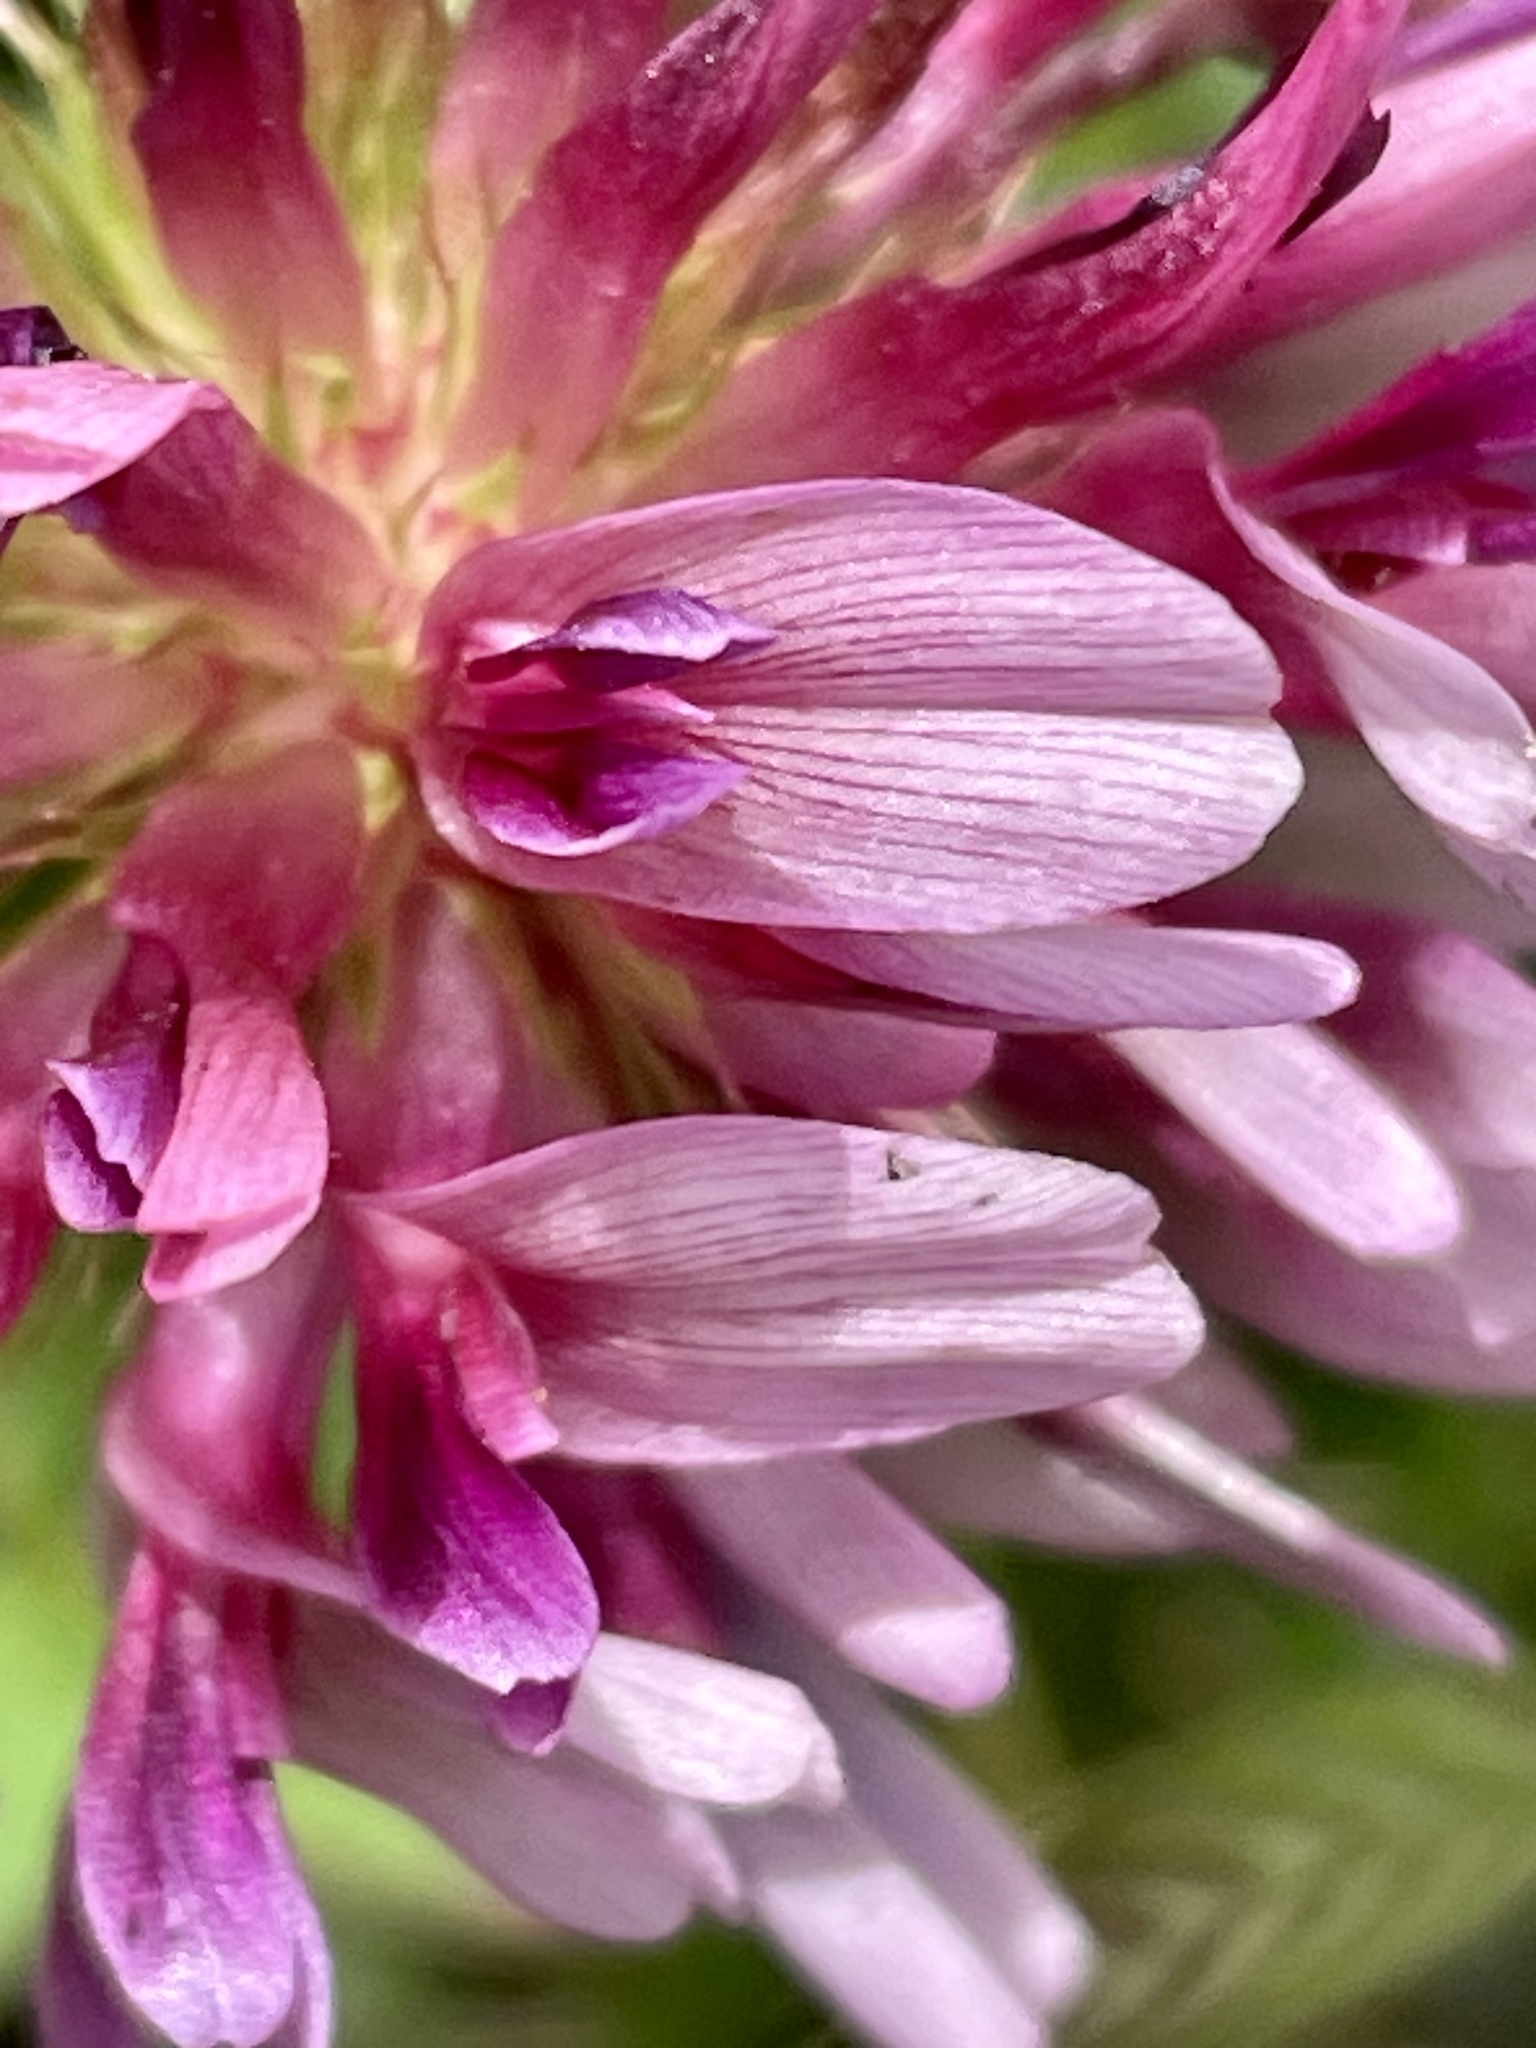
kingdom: Plantae
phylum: Tracheophyta
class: Magnoliopsida
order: Fabales
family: Fabaceae
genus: Trifolium
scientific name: Trifolium wormskioldii
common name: Springbank clover
